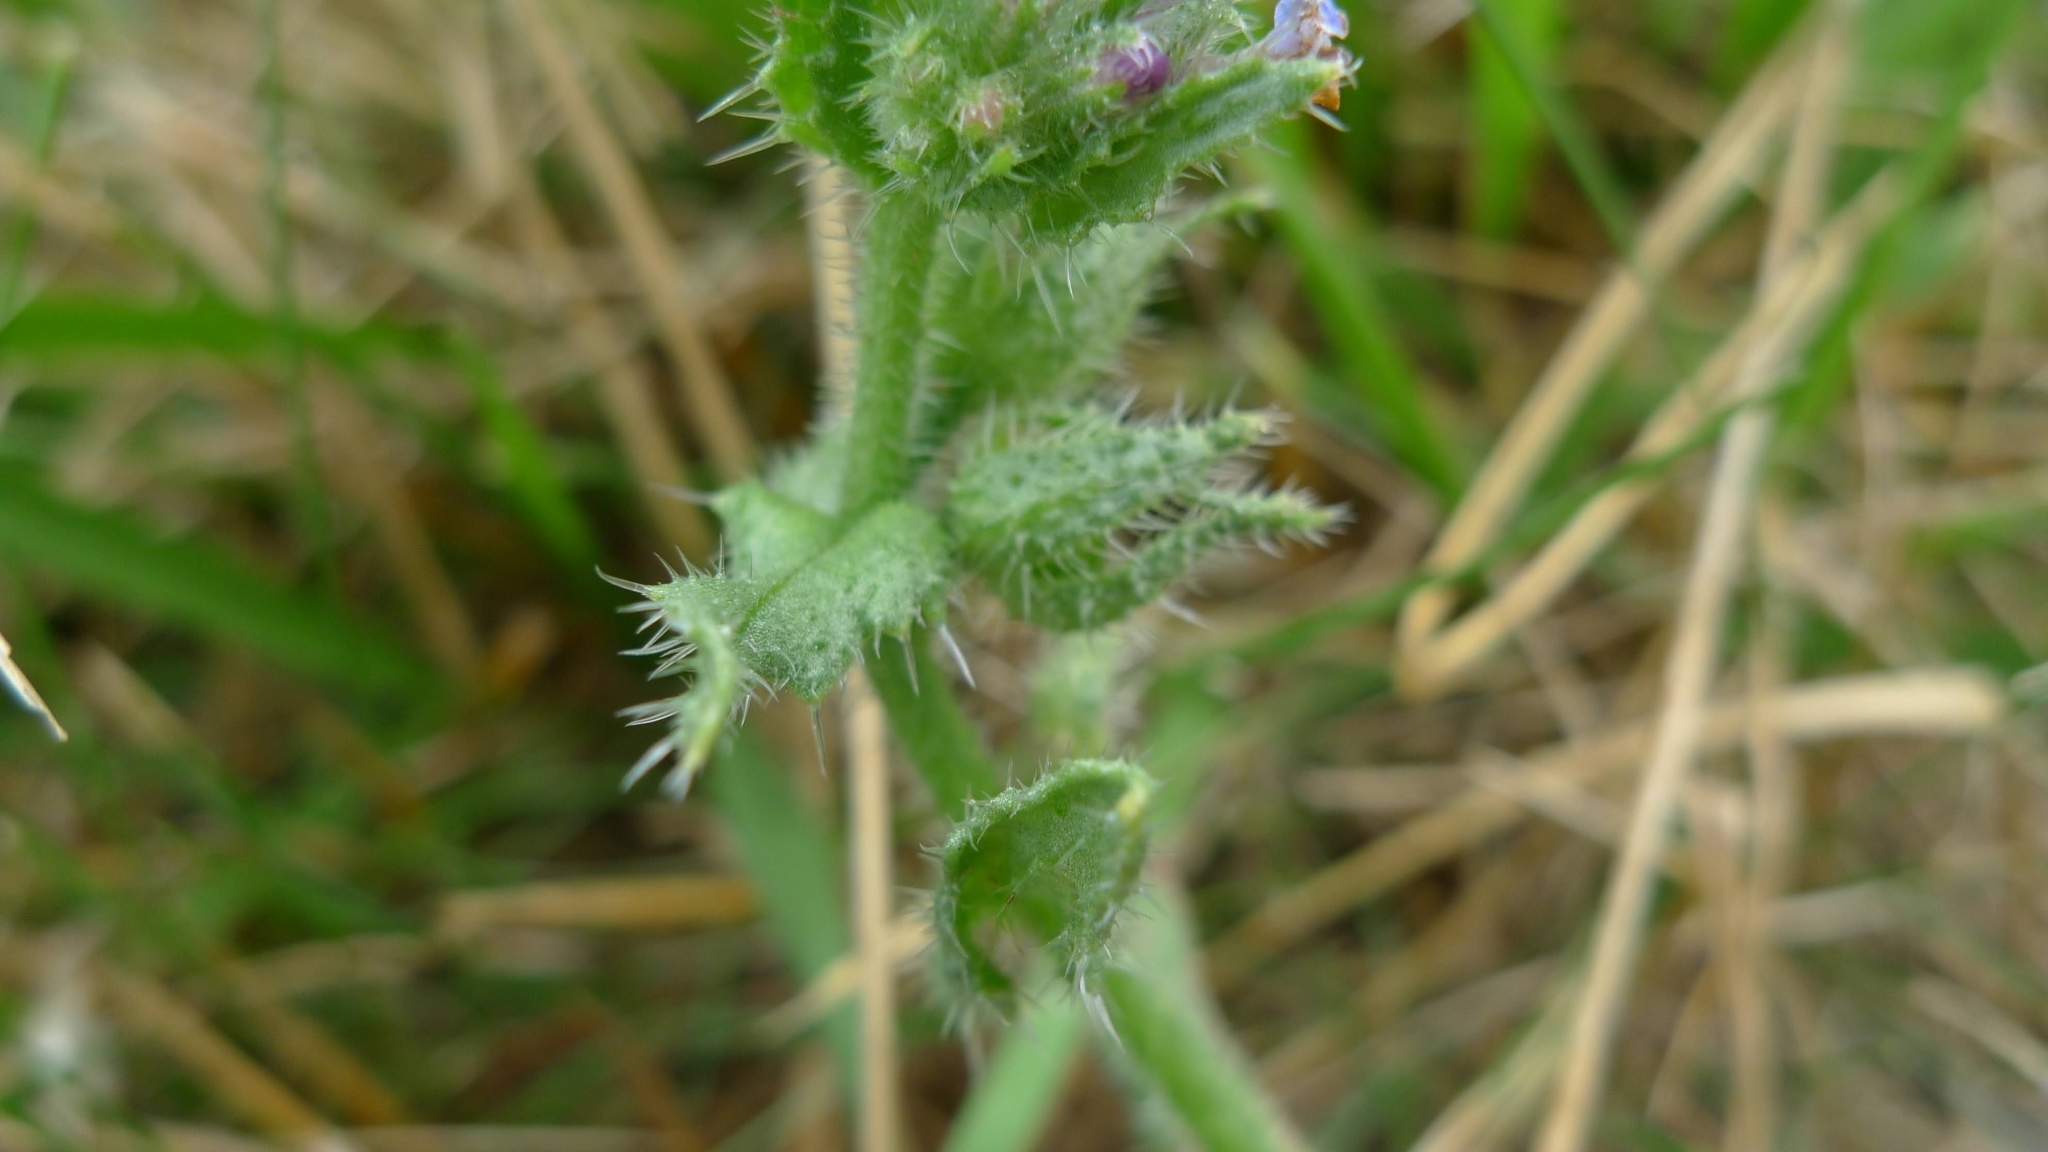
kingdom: Plantae
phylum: Tracheophyta
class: Magnoliopsida
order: Boraginales
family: Boraginaceae
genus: Lycopsis
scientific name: Lycopsis arvensis
